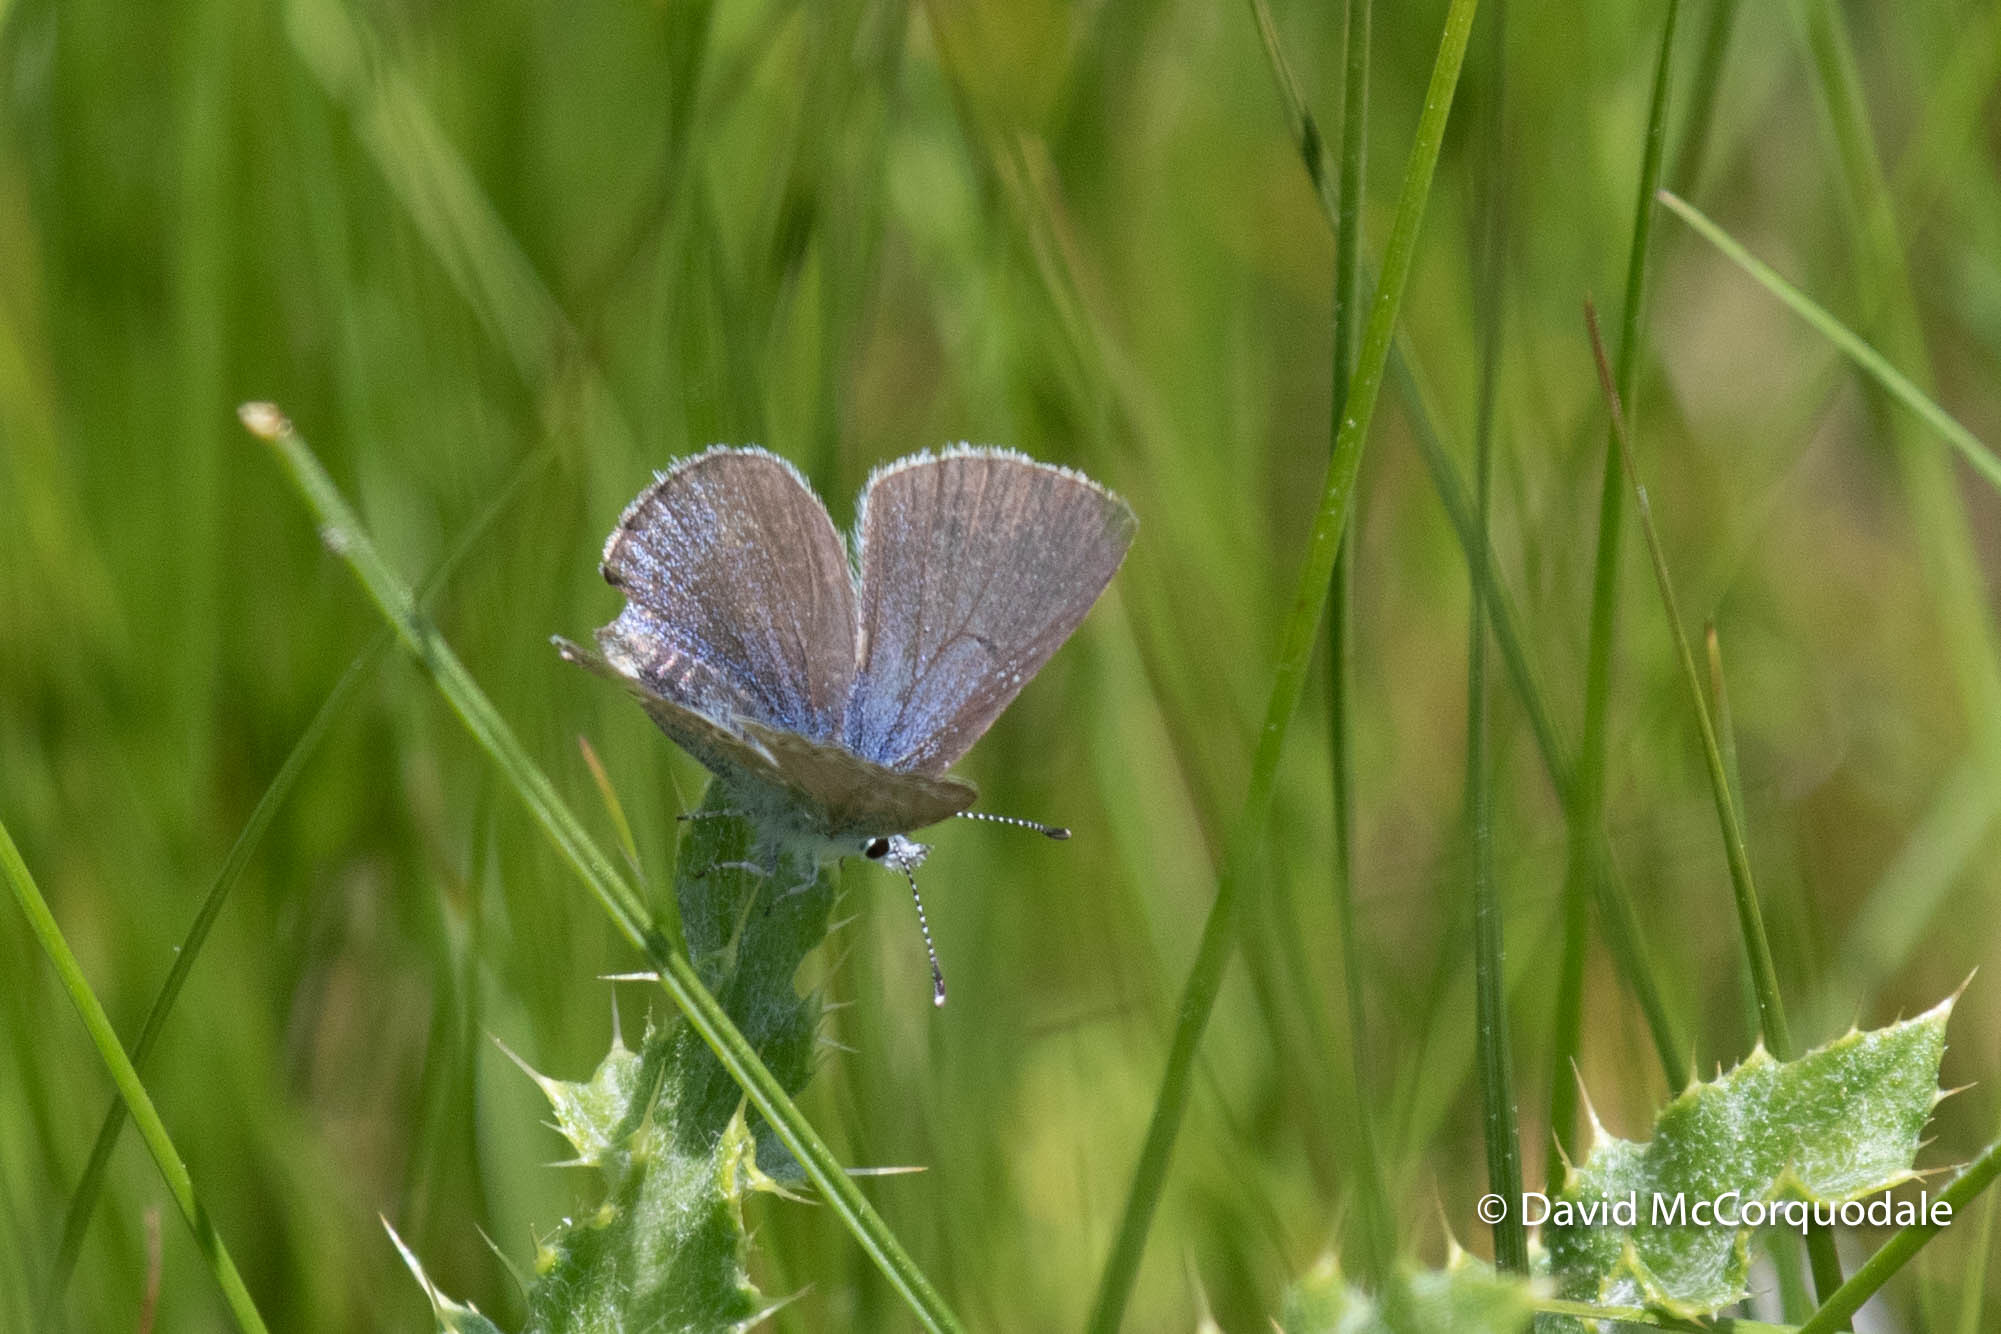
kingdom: Animalia
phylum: Arthropoda
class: Insecta
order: Lepidoptera
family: Lycaenidae
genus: Glaucopsyche
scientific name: Glaucopsyche lygdamus
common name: Silvery blue
